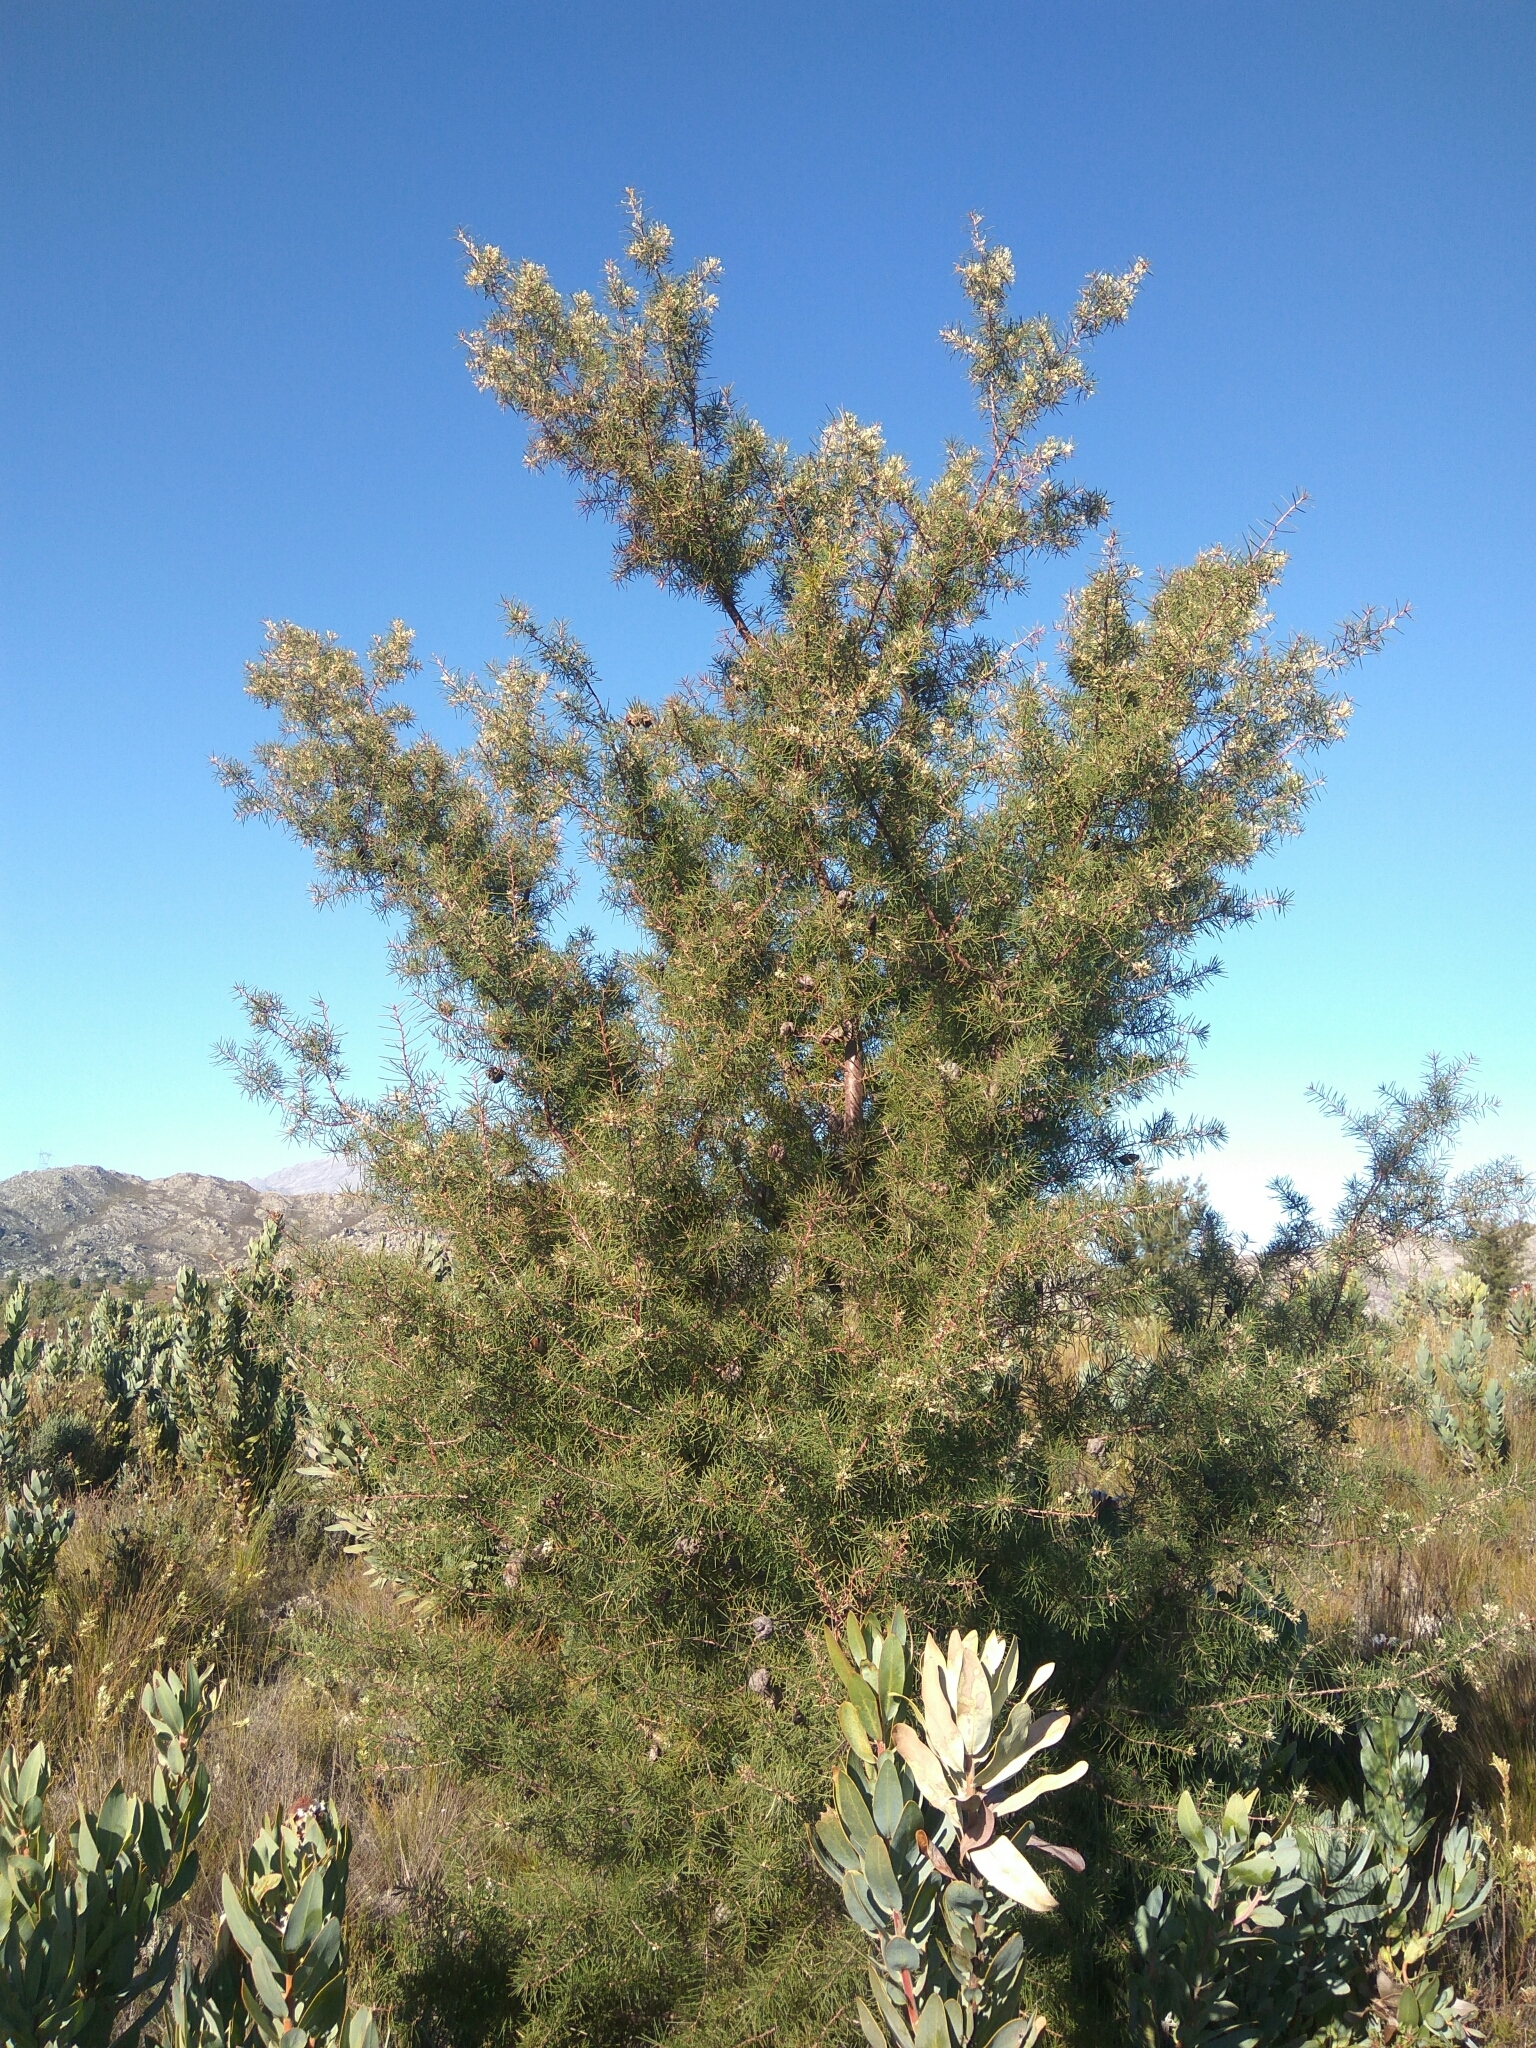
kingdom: Plantae
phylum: Tracheophyta
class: Magnoliopsida
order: Proteales
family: Proteaceae
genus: Hakea
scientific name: Hakea sericea
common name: Needle bush
